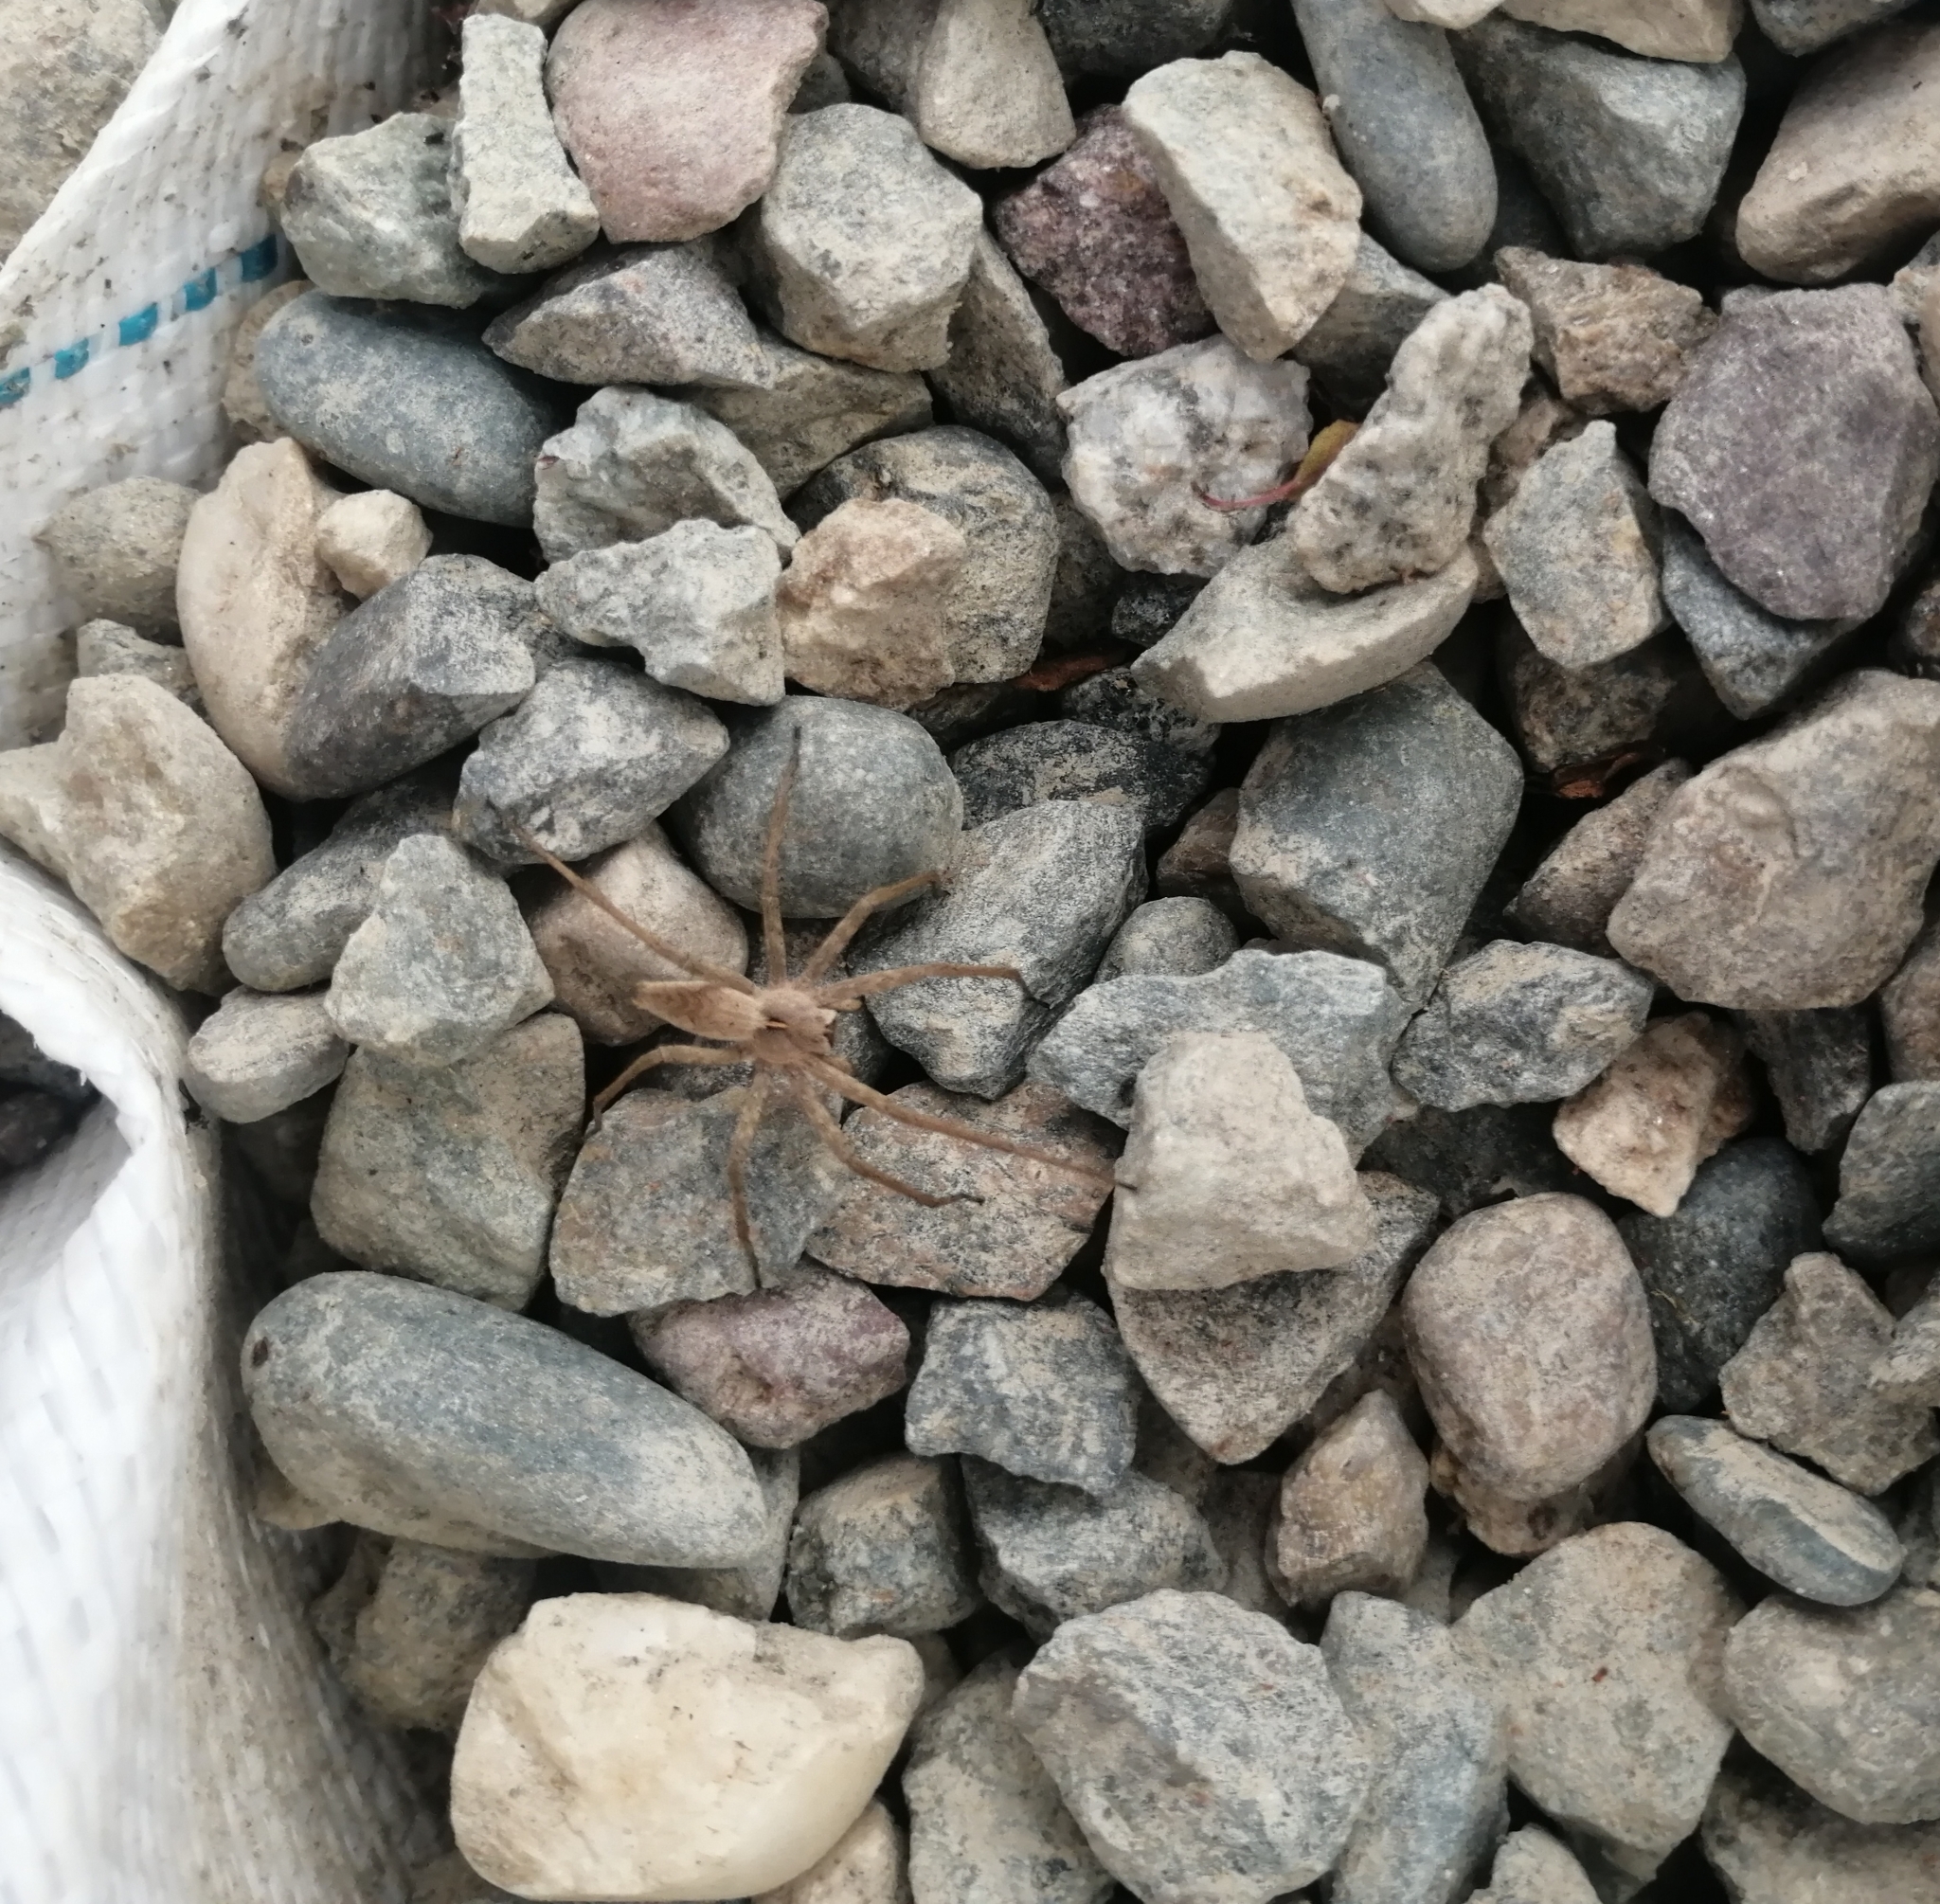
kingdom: Animalia
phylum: Arthropoda
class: Arachnida
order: Araneae
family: Pisauridae
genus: Pisaura
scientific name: Pisaura
